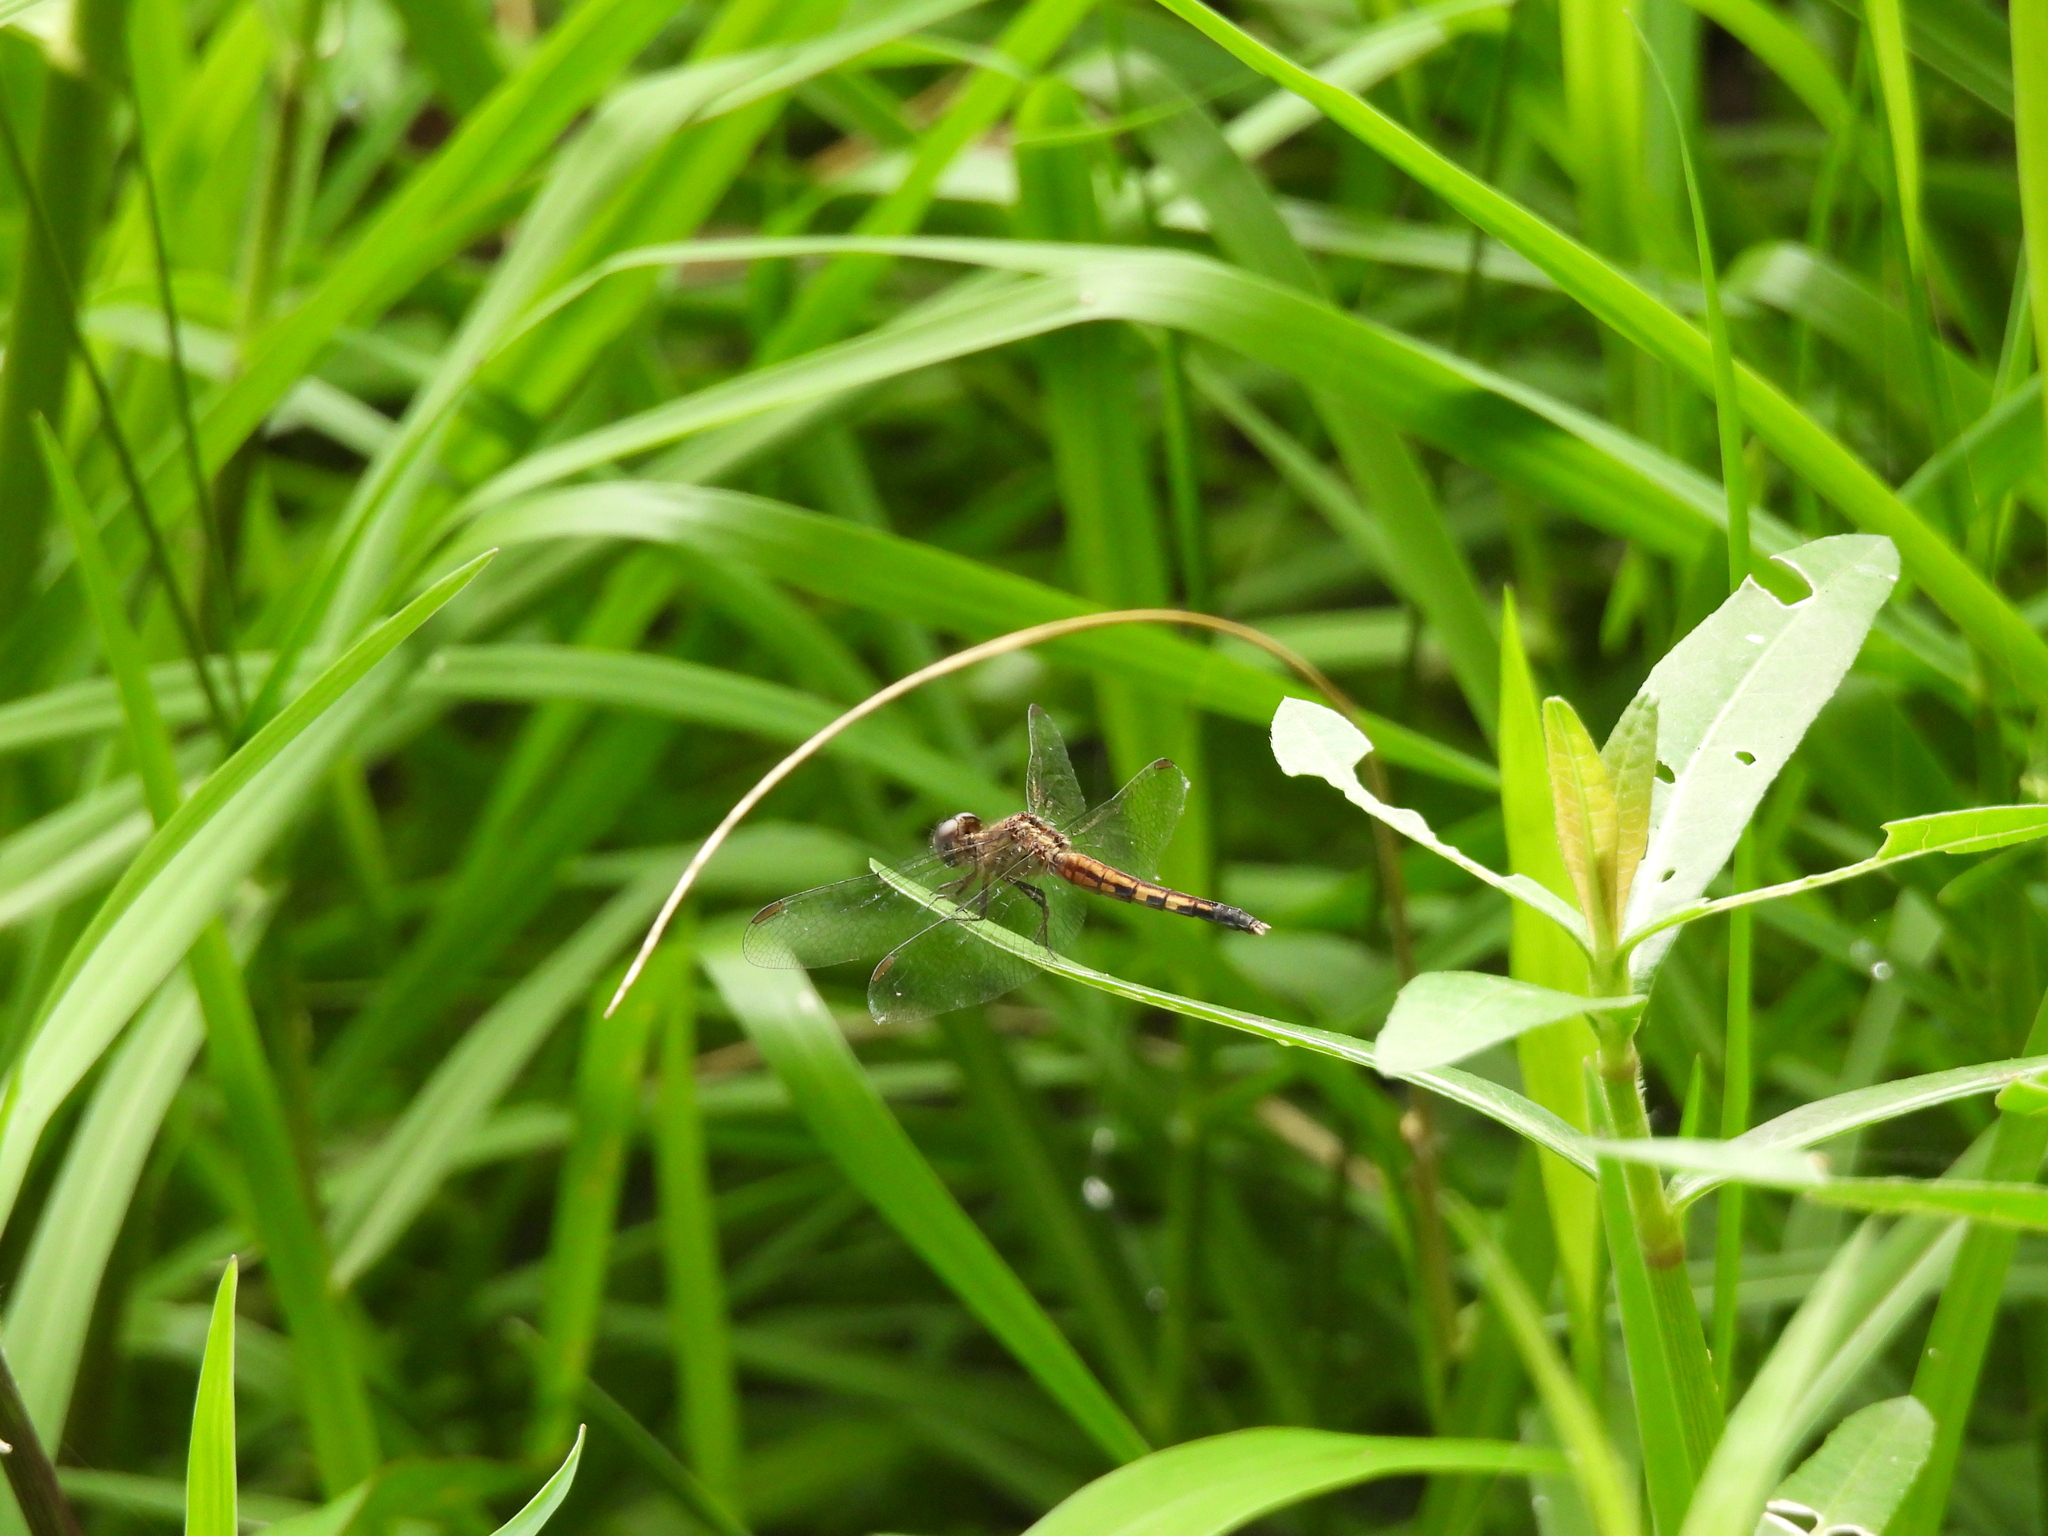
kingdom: Animalia
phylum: Arthropoda
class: Insecta
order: Odonata
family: Libellulidae
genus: Erythrodiplax
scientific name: Erythrodiplax minuscula
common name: Little blue dragonlet
